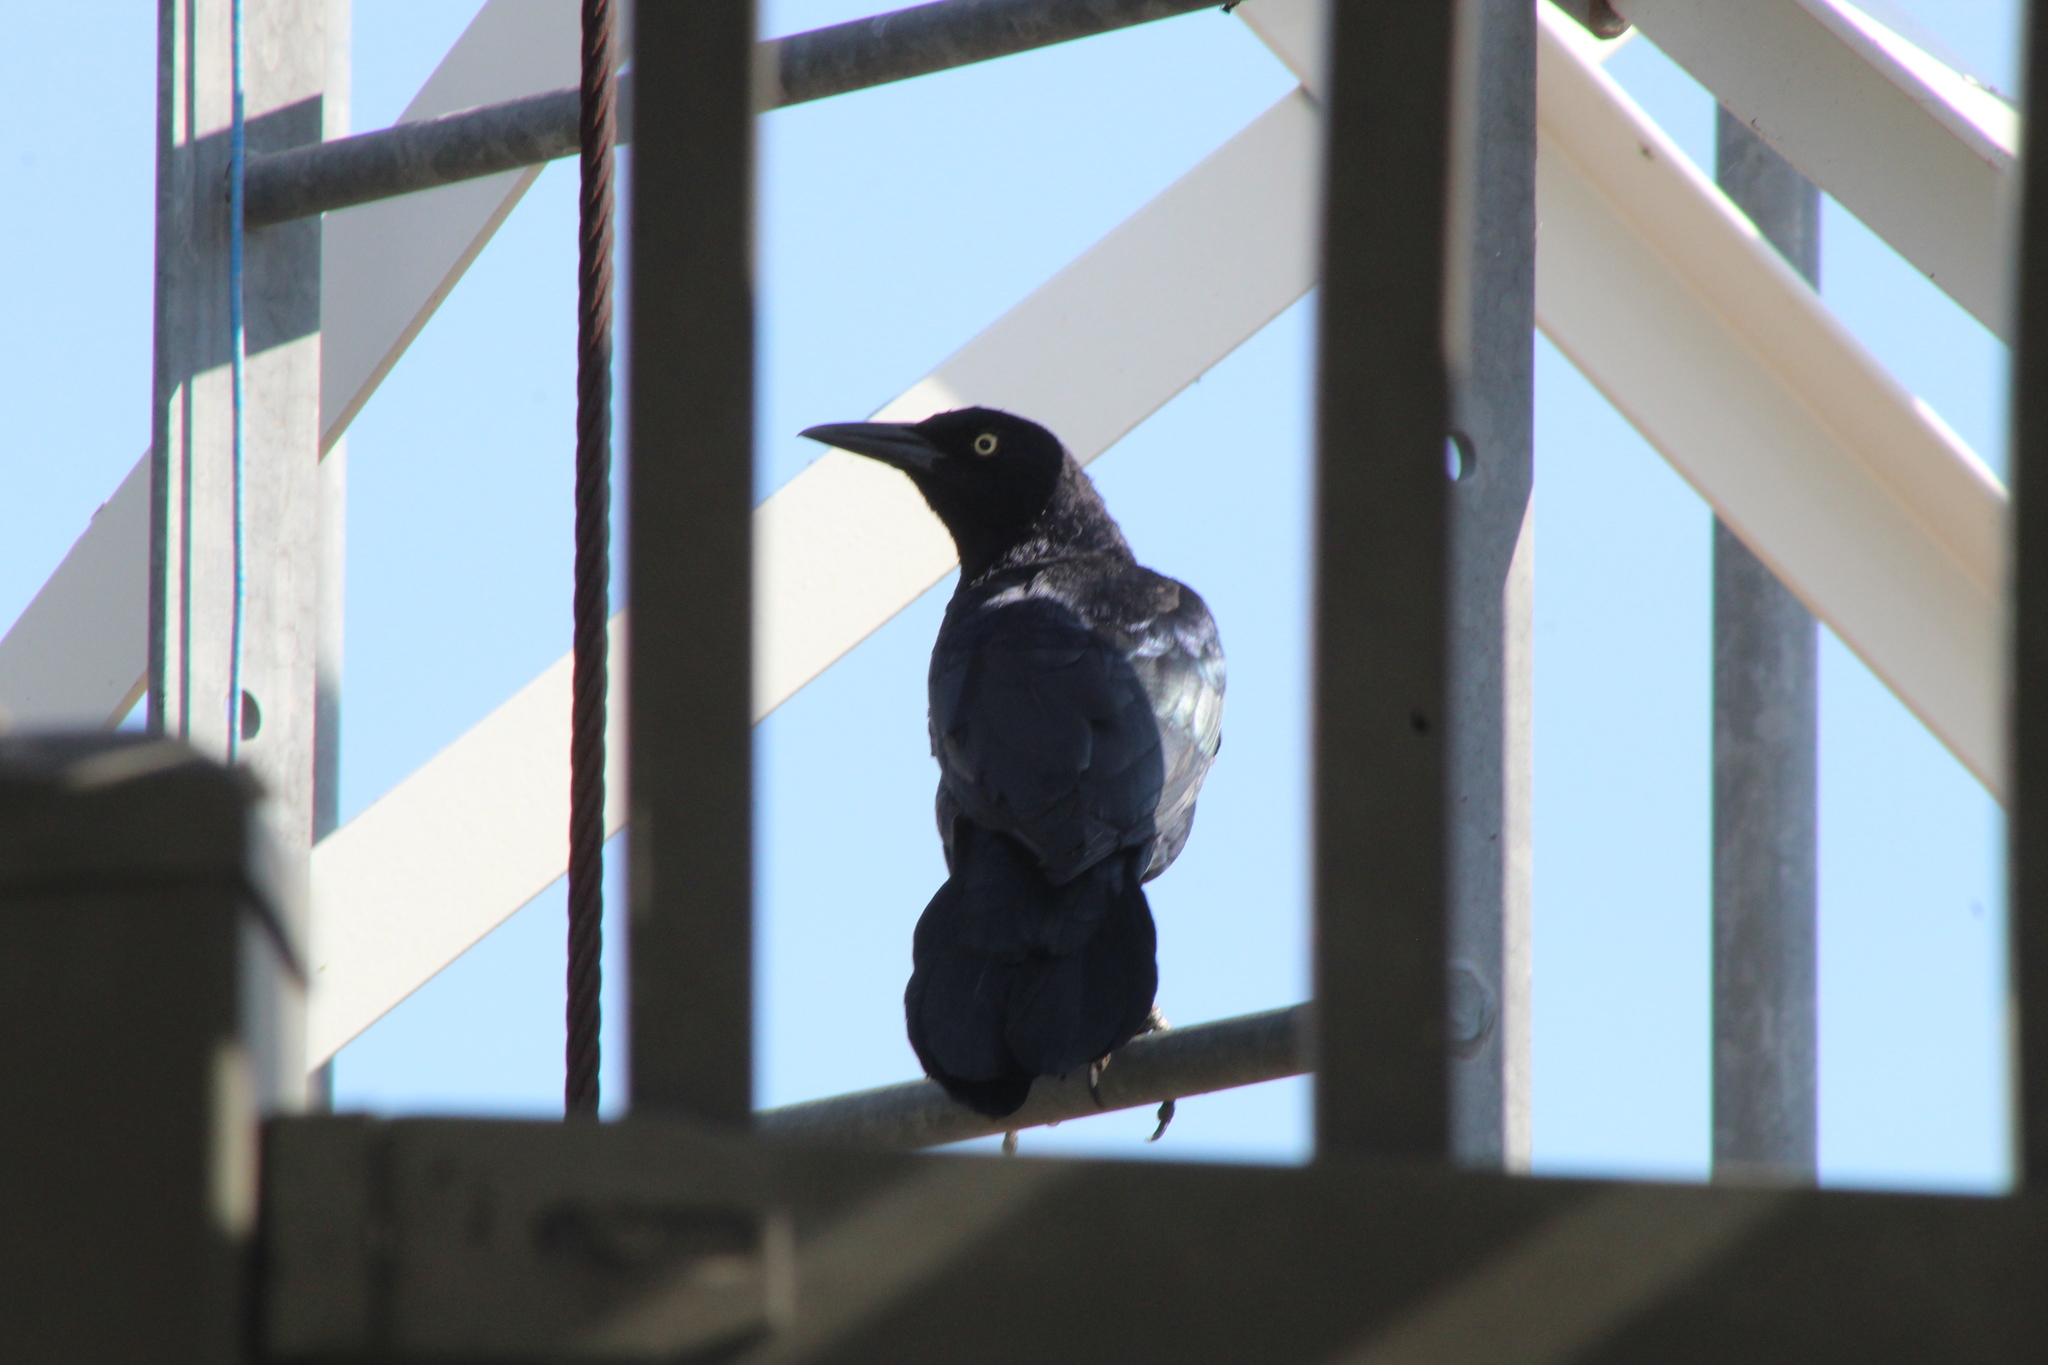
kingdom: Animalia
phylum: Chordata
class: Aves
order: Passeriformes
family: Icteridae
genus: Quiscalus
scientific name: Quiscalus mexicanus
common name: Great-tailed grackle
